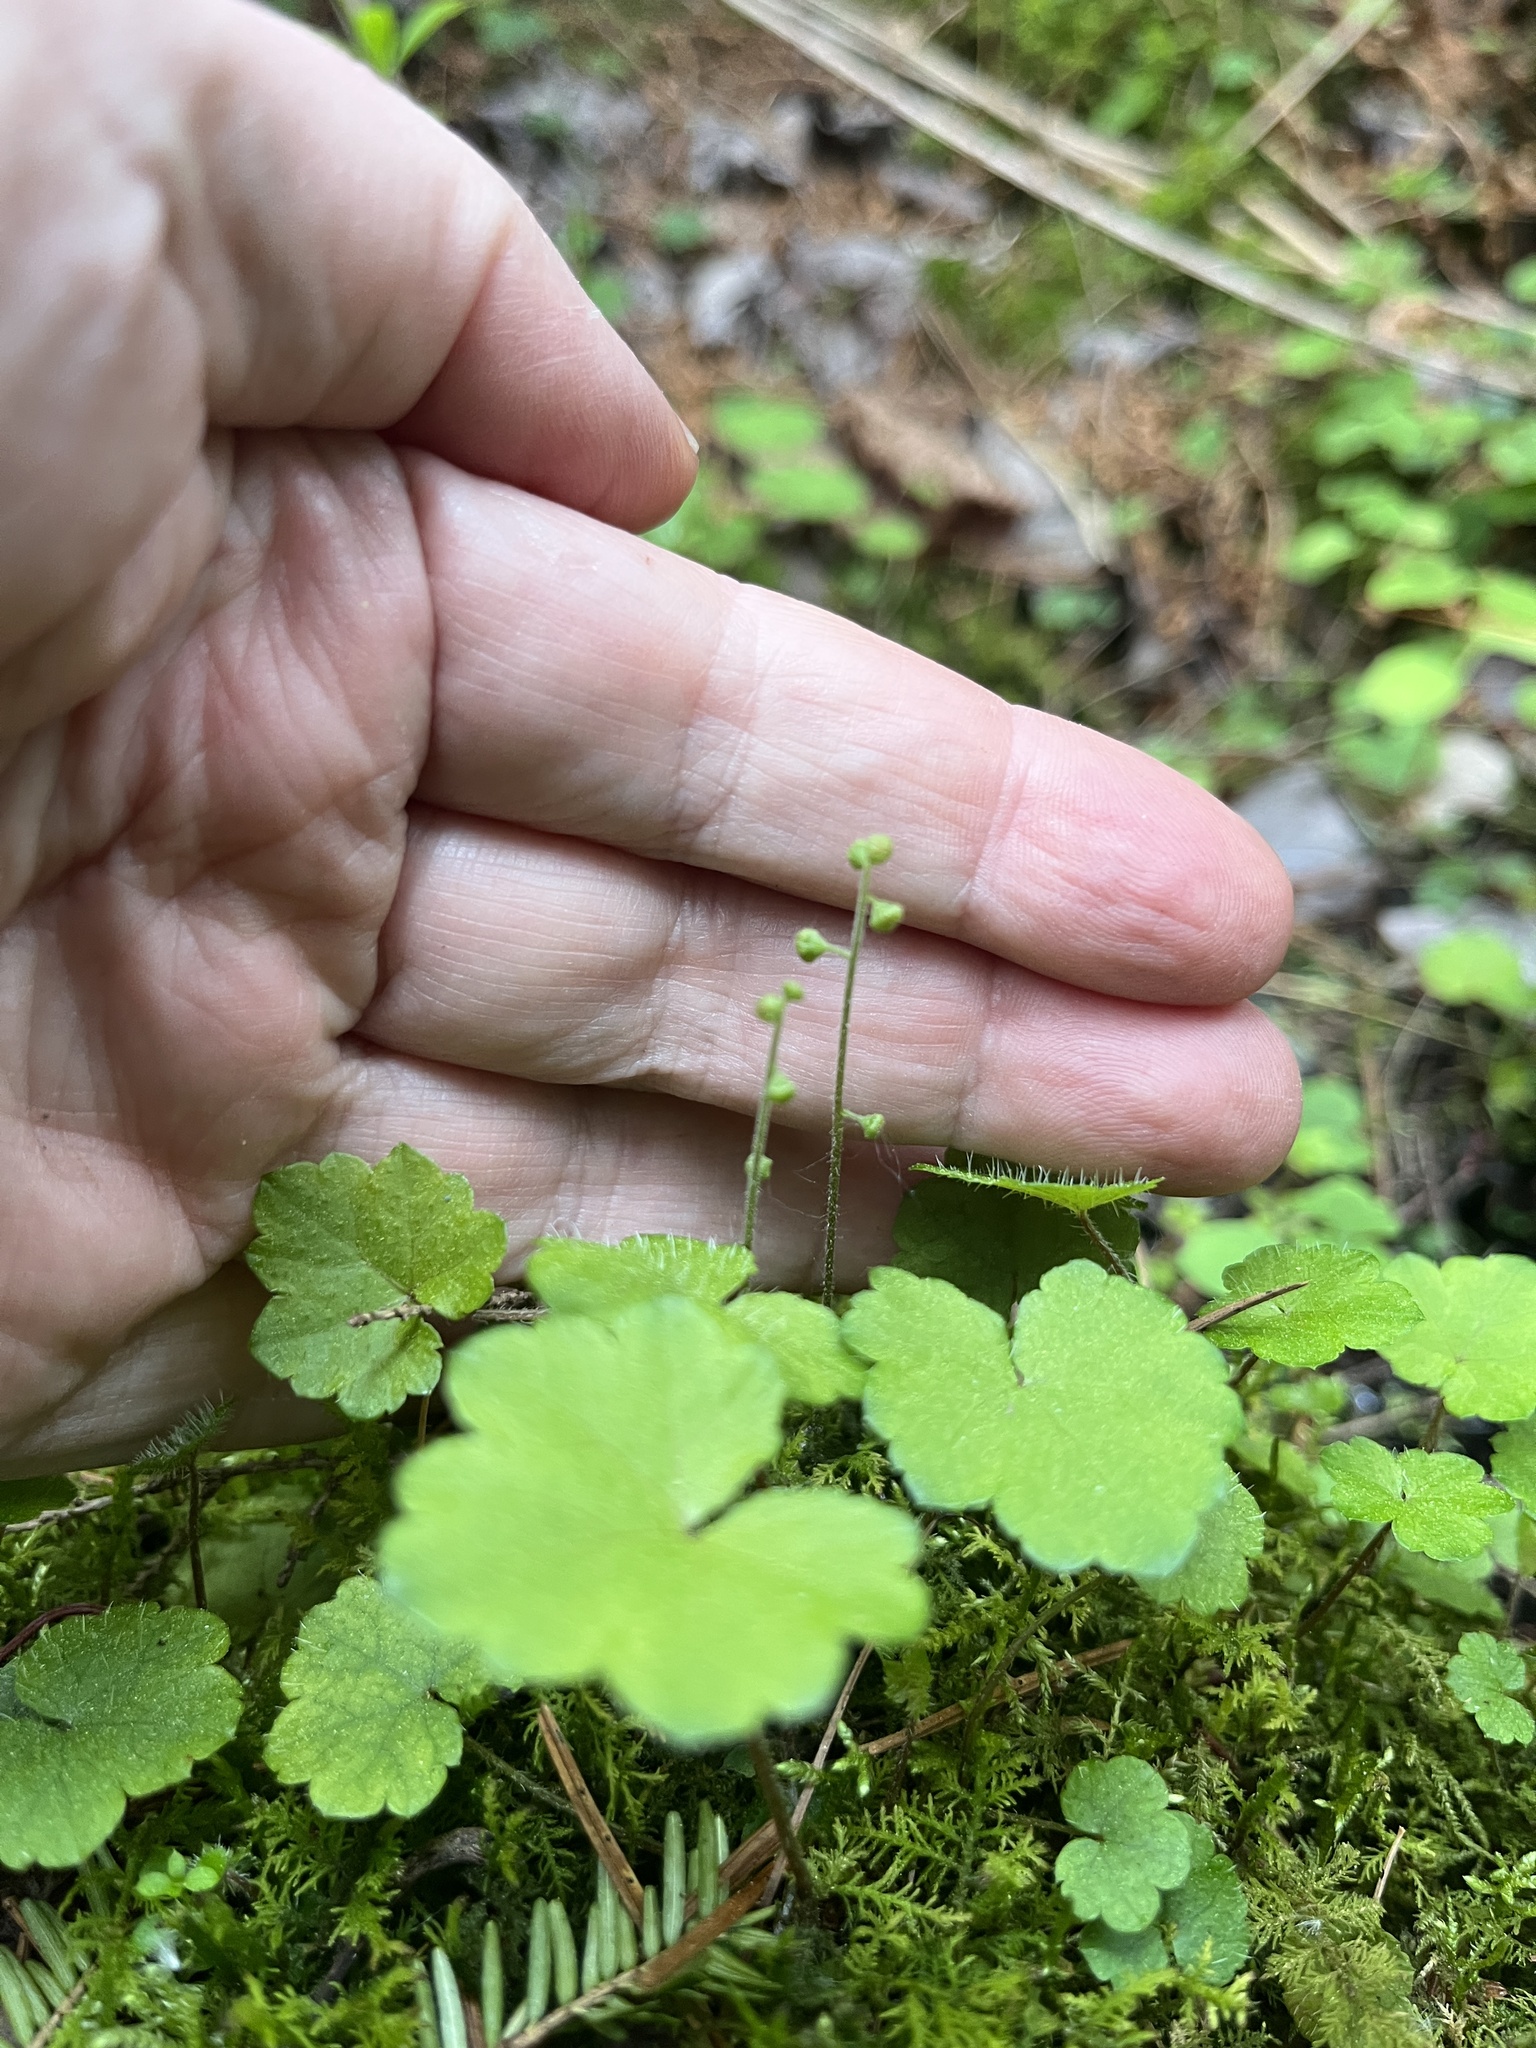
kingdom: Plantae
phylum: Tracheophyta
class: Magnoliopsida
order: Saxifragales
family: Saxifragaceae
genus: Mitella
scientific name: Mitella nuda
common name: Bare-stemmed bishop's-cap
